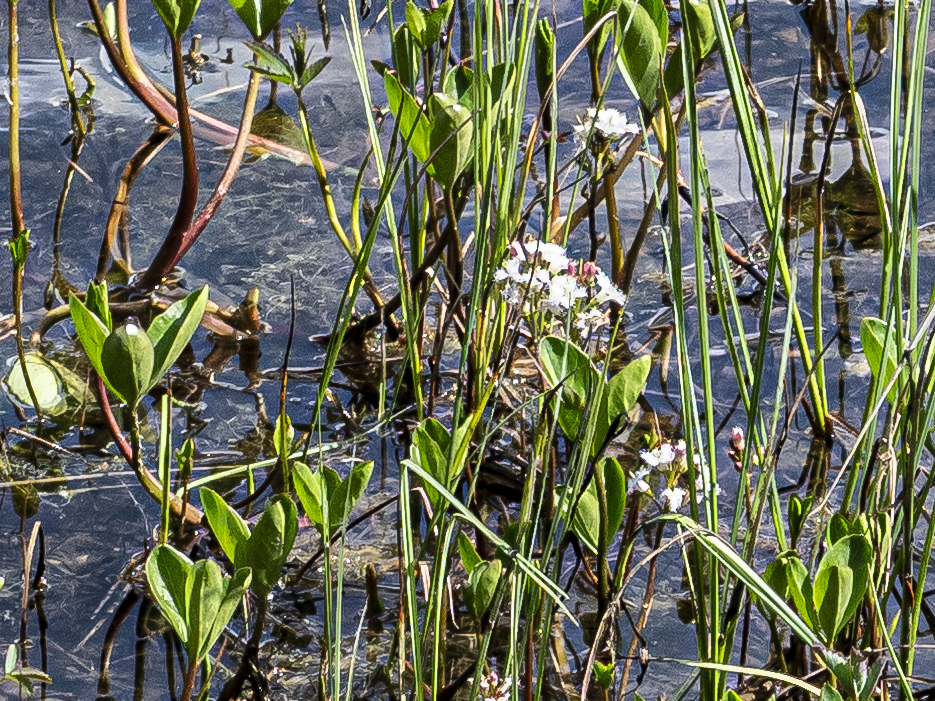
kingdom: Plantae
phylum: Tracheophyta
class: Magnoliopsida
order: Asterales
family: Menyanthaceae
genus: Menyanthes
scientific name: Menyanthes trifoliata
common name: Bogbean
